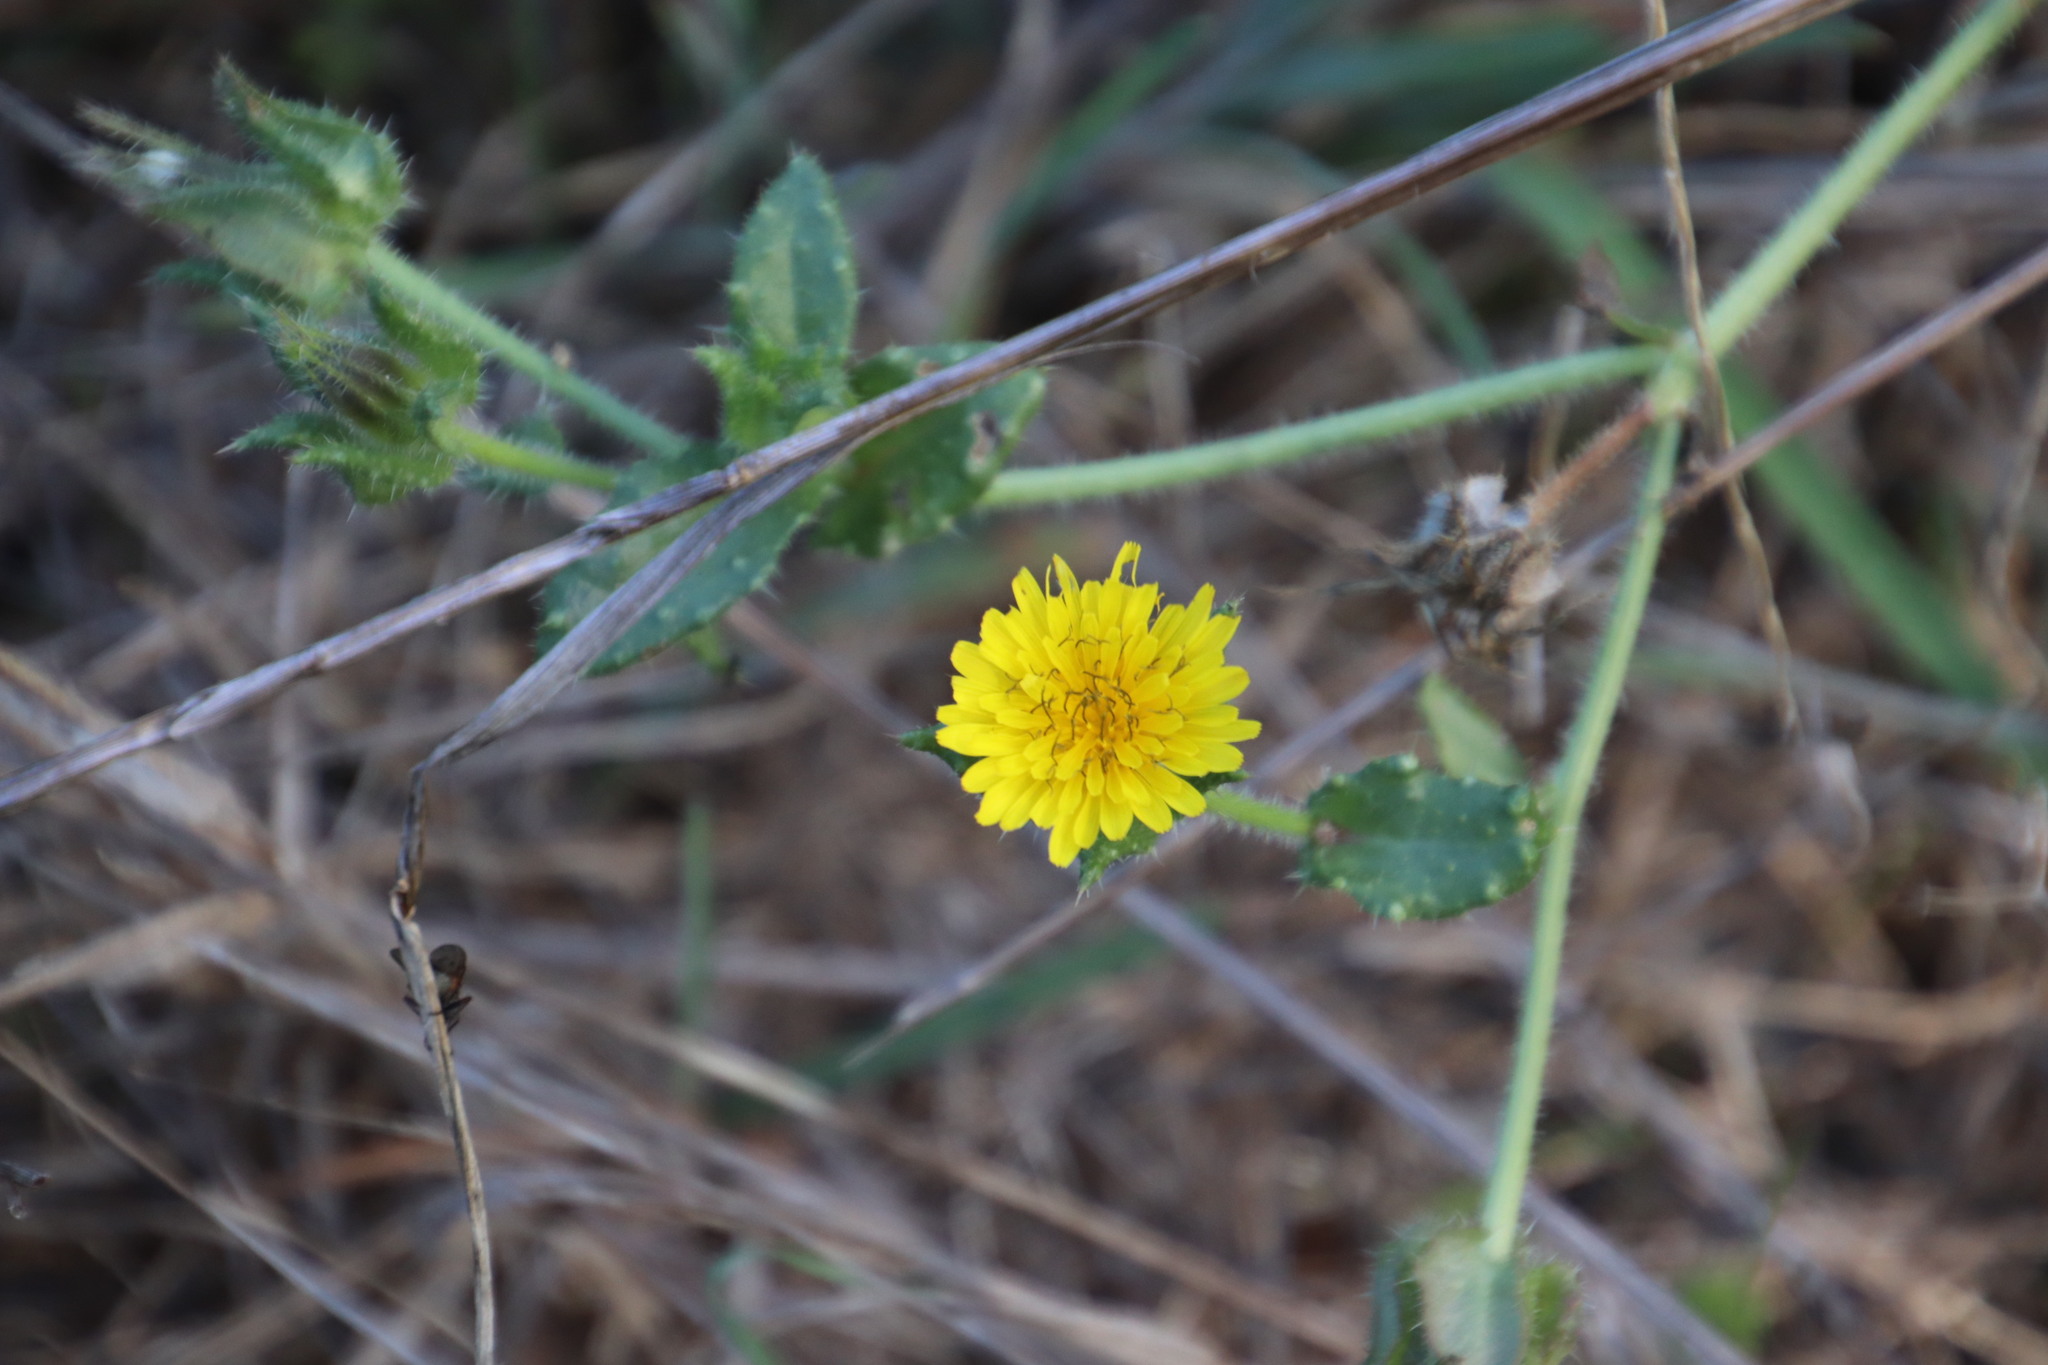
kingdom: Plantae
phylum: Tracheophyta
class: Magnoliopsida
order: Asterales
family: Asteraceae
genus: Helminthotheca
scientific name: Helminthotheca echioides
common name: Ox-tongue
